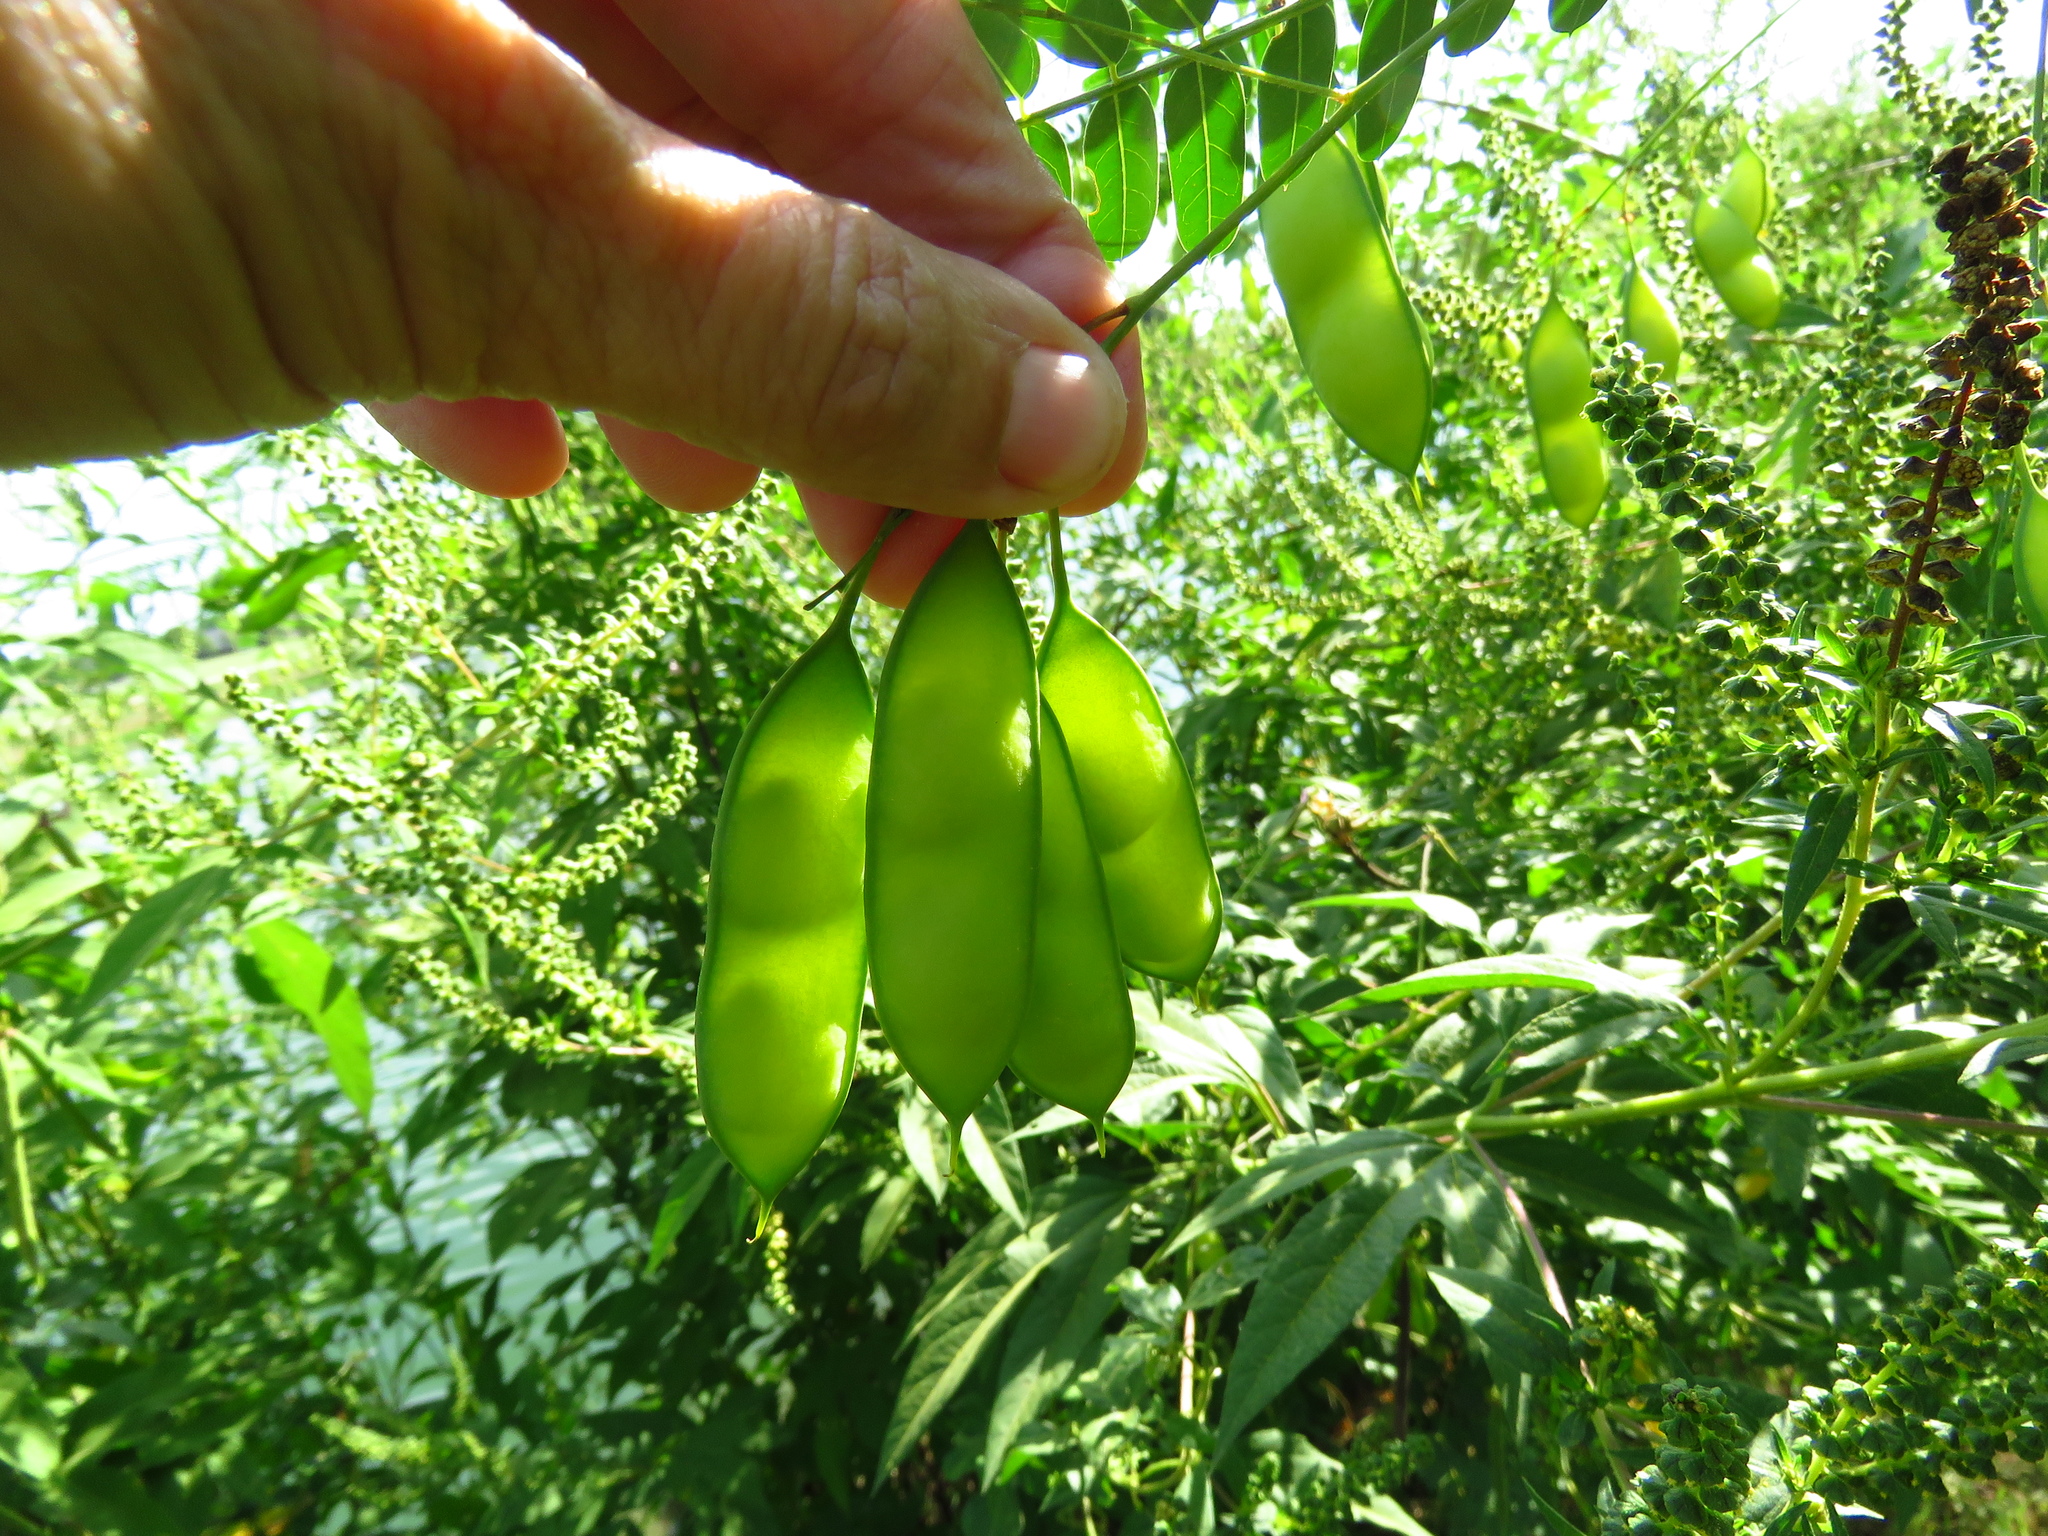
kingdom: Plantae
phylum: Tracheophyta
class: Magnoliopsida
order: Fabales
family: Fabaceae
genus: Sesbania
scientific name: Sesbania vesicaria
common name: Bagpod
